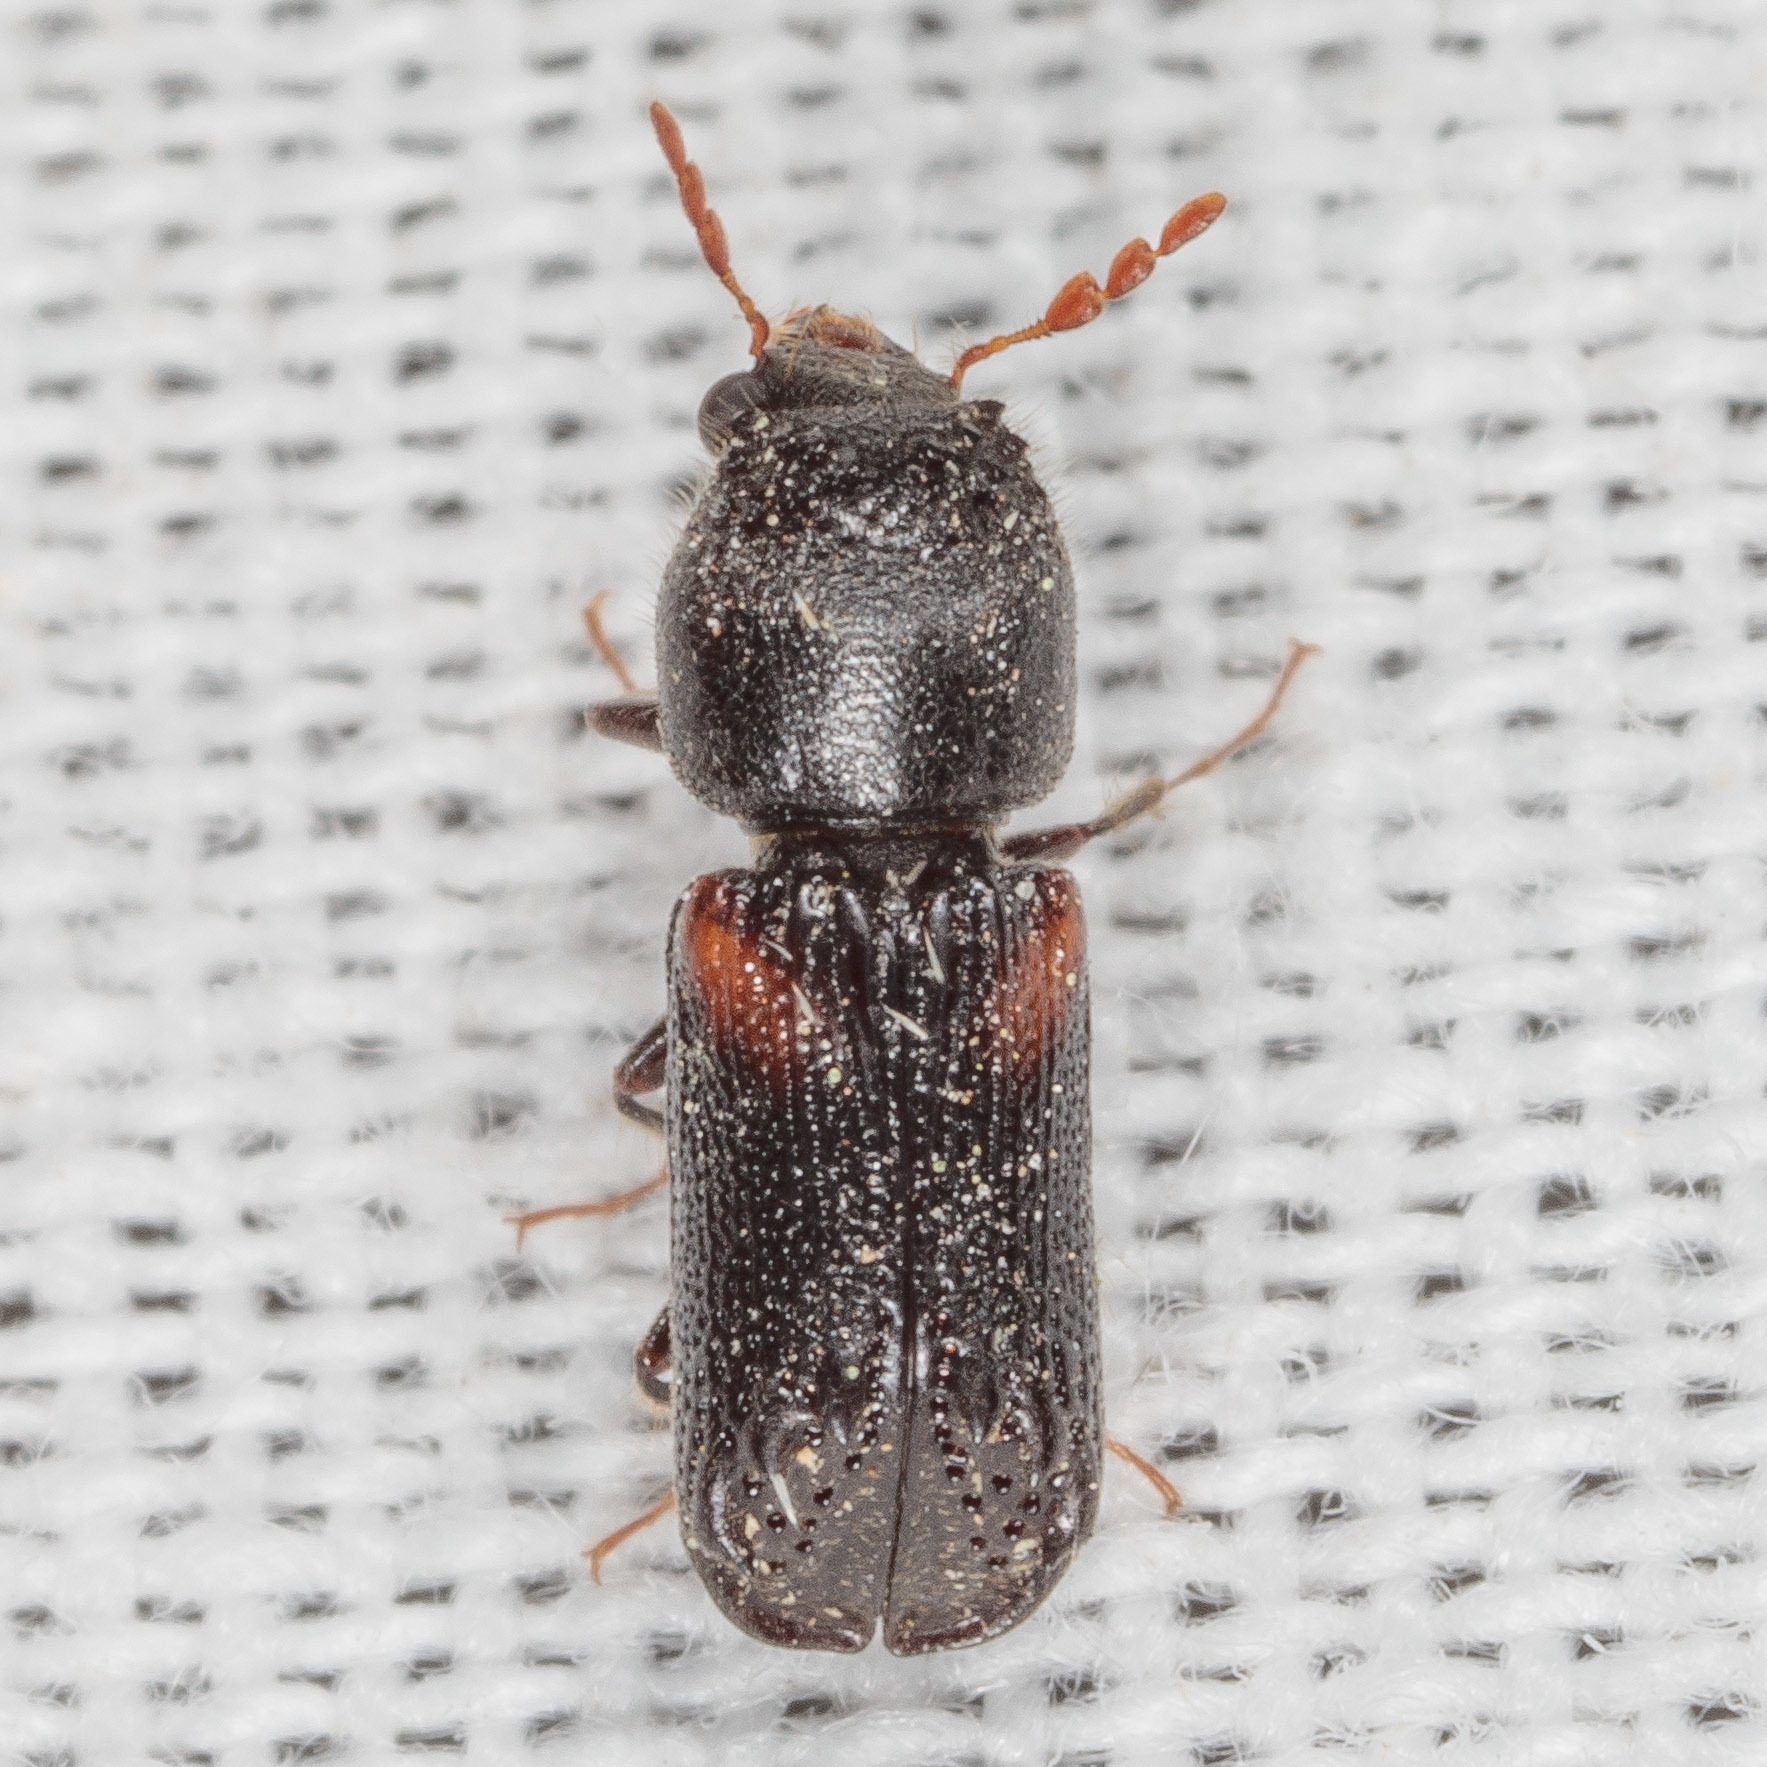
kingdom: Animalia
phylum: Arthropoda
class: Insecta
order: Coleoptera
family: Bostrichidae
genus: Xylobiops
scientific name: Xylobiops basilaris
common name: Red-shouldered bostrichid
